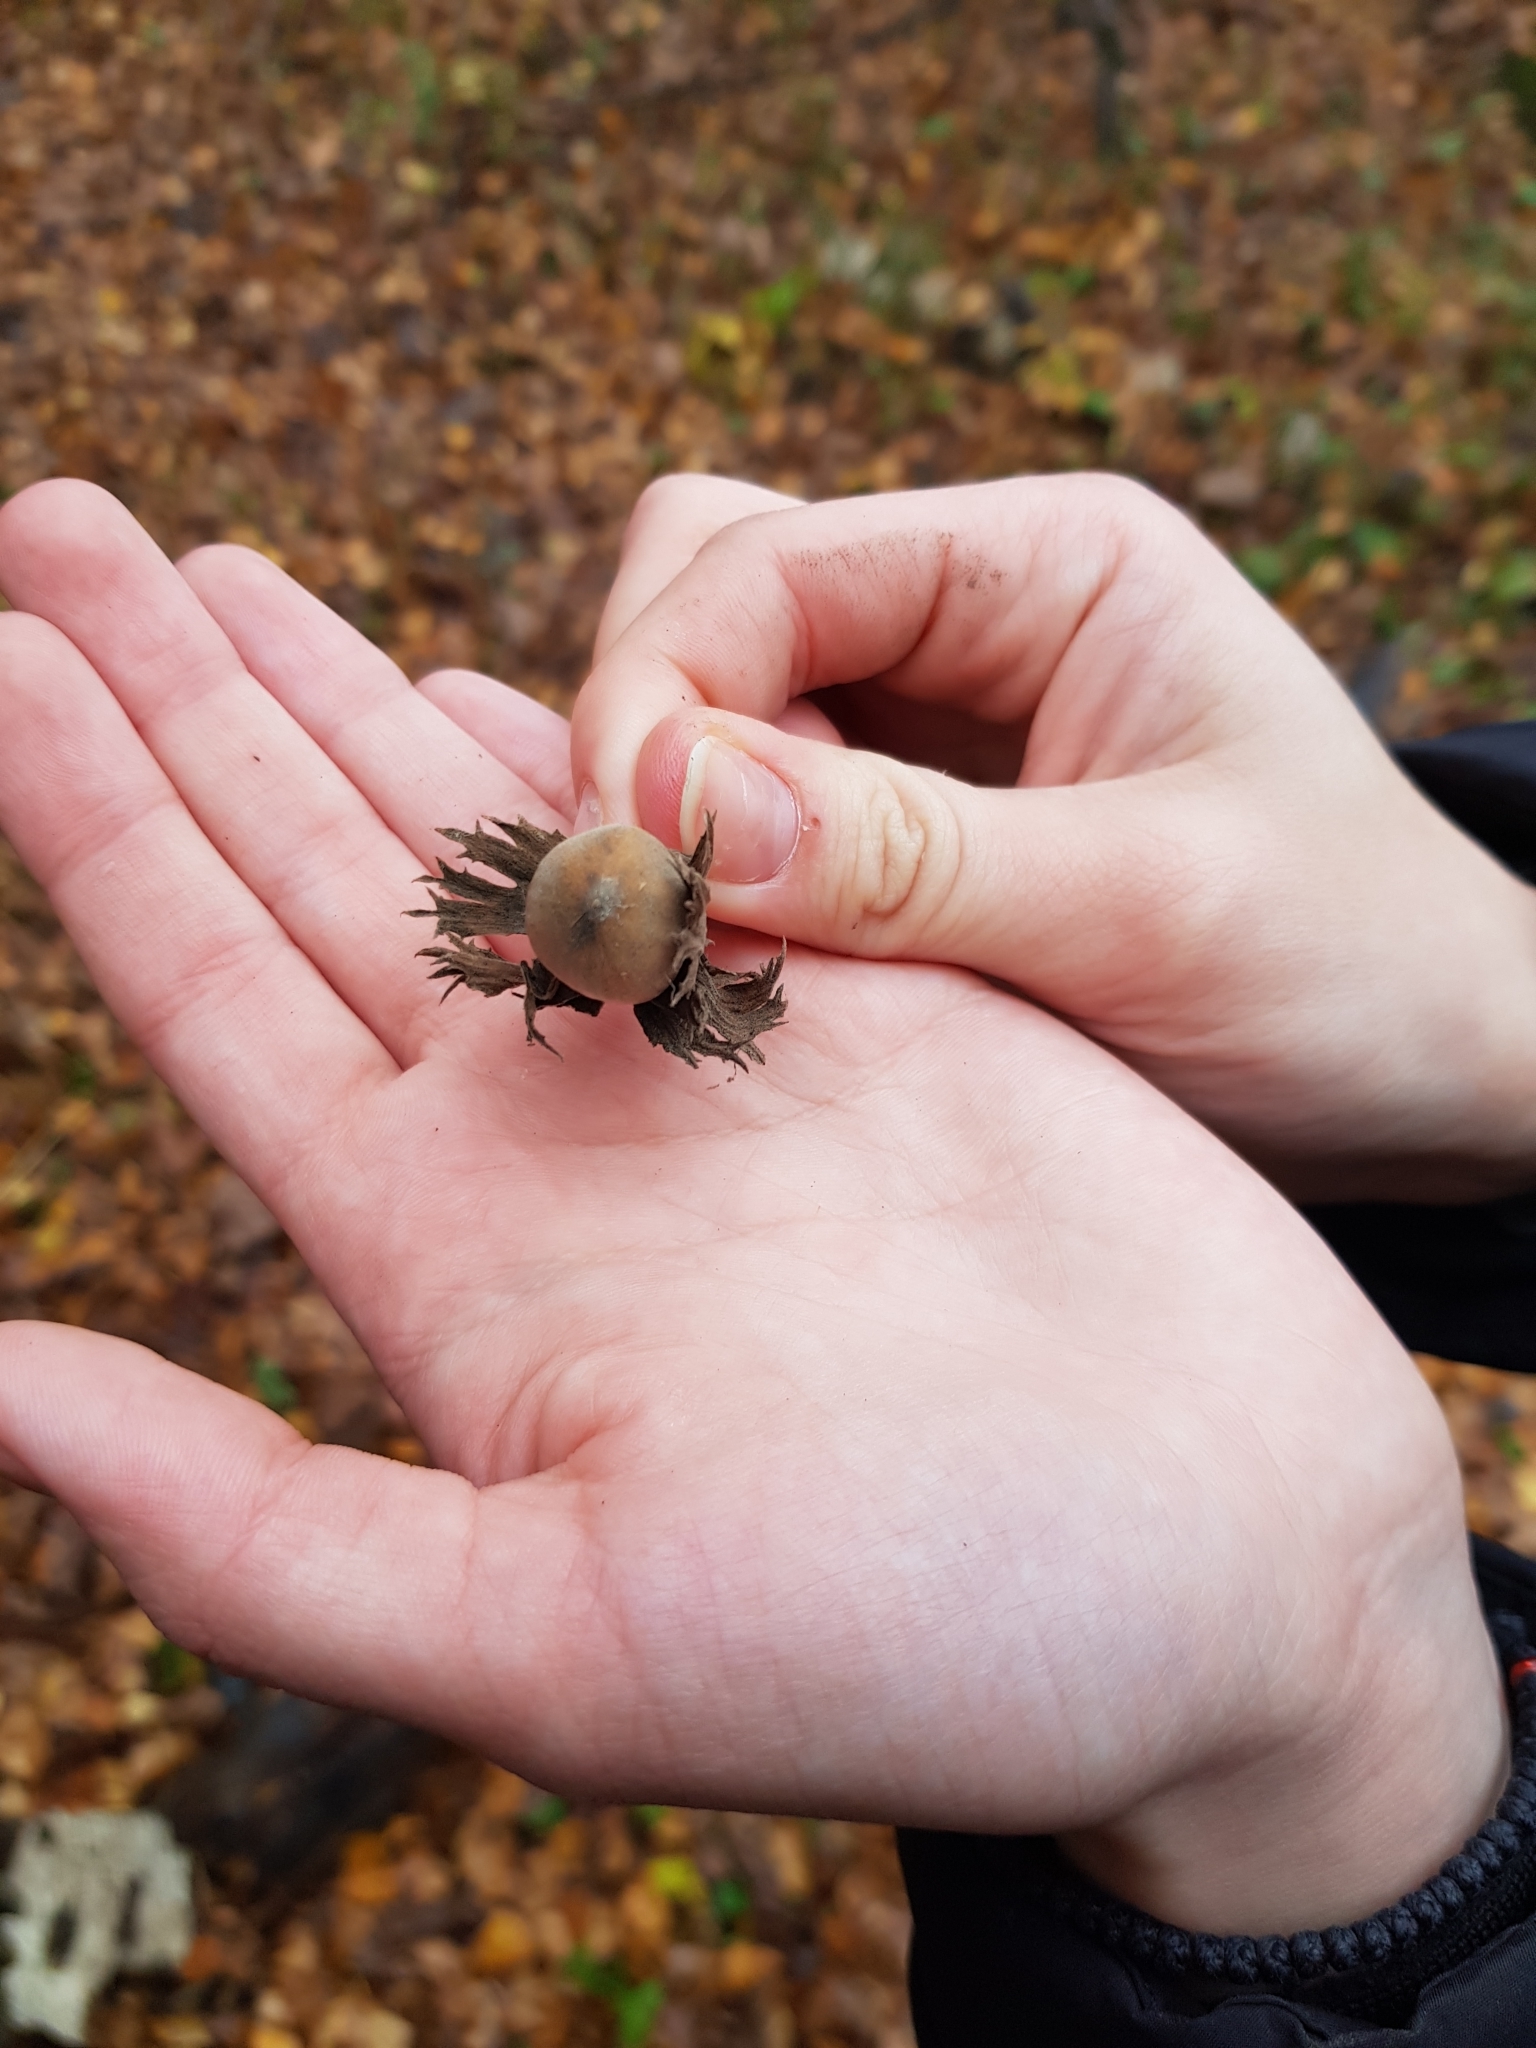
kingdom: Plantae
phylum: Tracheophyta
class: Magnoliopsida
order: Fagales
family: Betulaceae
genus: Corylus
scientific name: Corylus avellana
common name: European hazel
